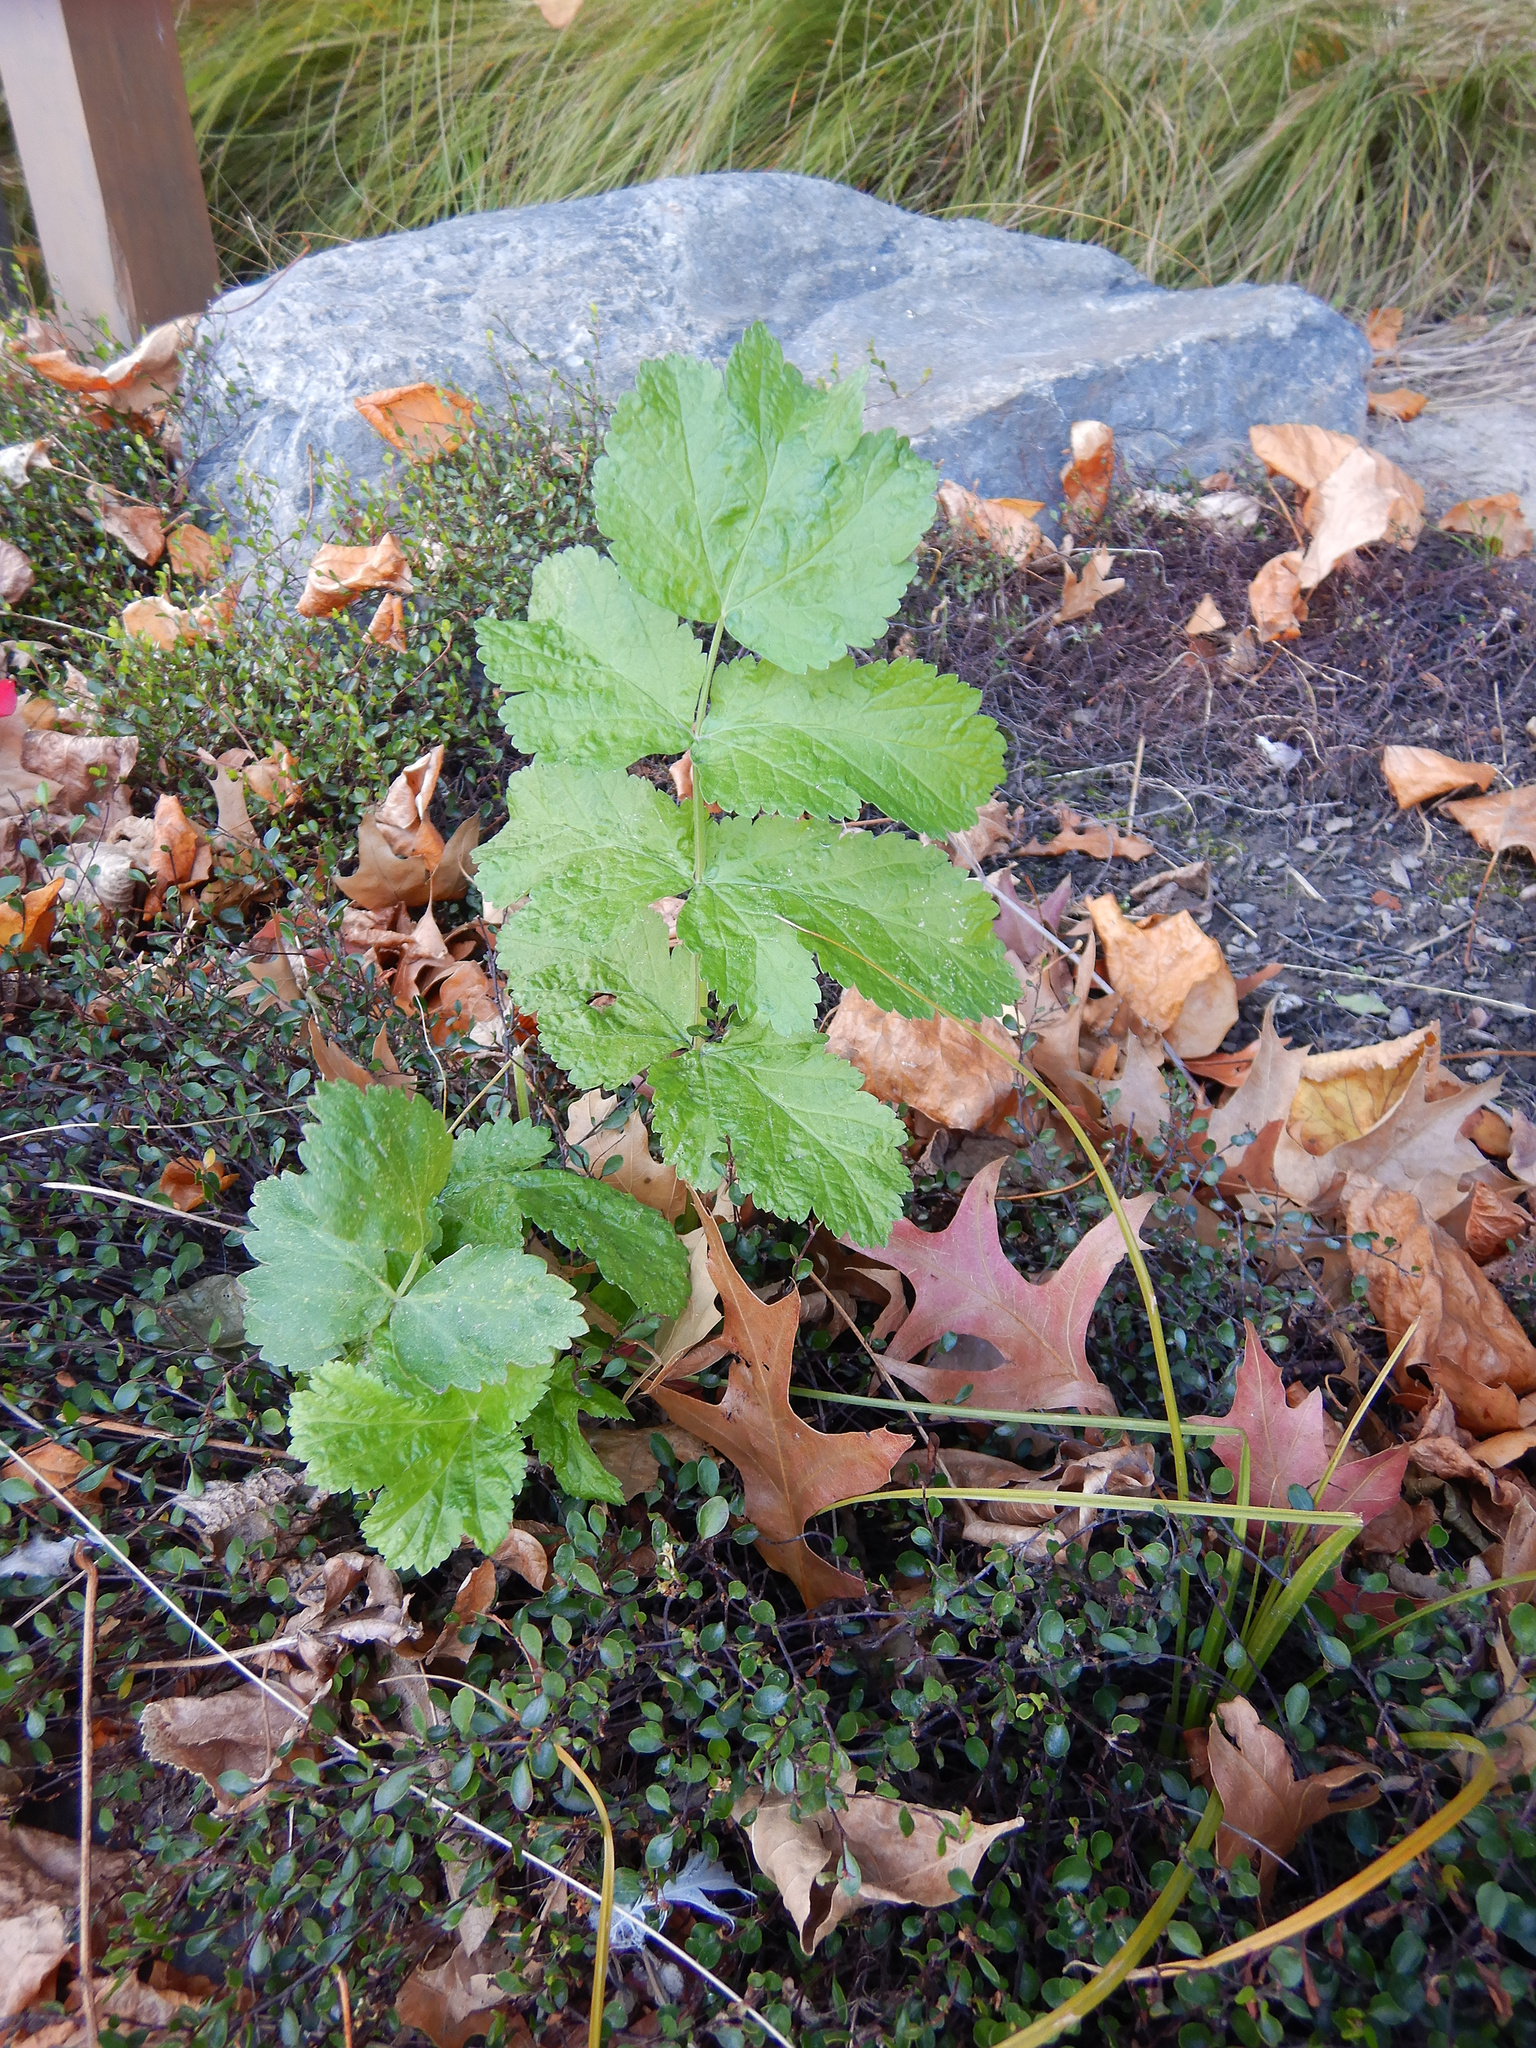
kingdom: Plantae
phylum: Tracheophyta
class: Magnoliopsida
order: Apiales
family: Apiaceae
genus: Pastinaca
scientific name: Pastinaca sativa
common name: Wild parsnip
